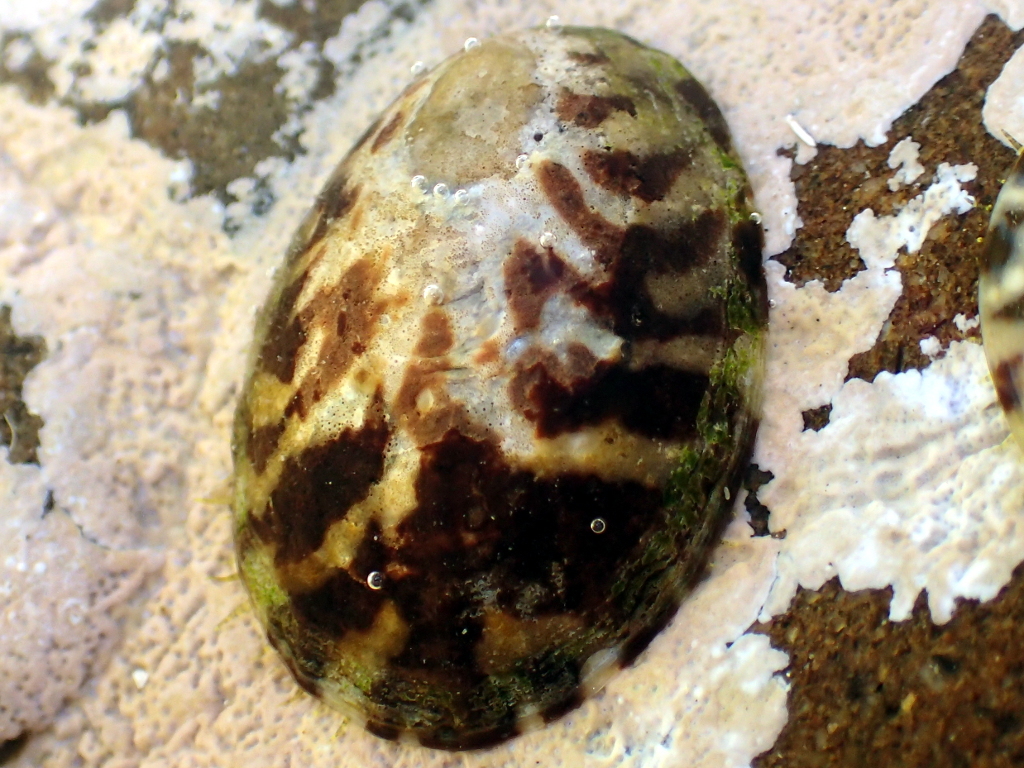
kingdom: Animalia
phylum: Mollusca
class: Gastropoda
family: Nacellidae
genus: Cellana
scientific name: Cellana radians
